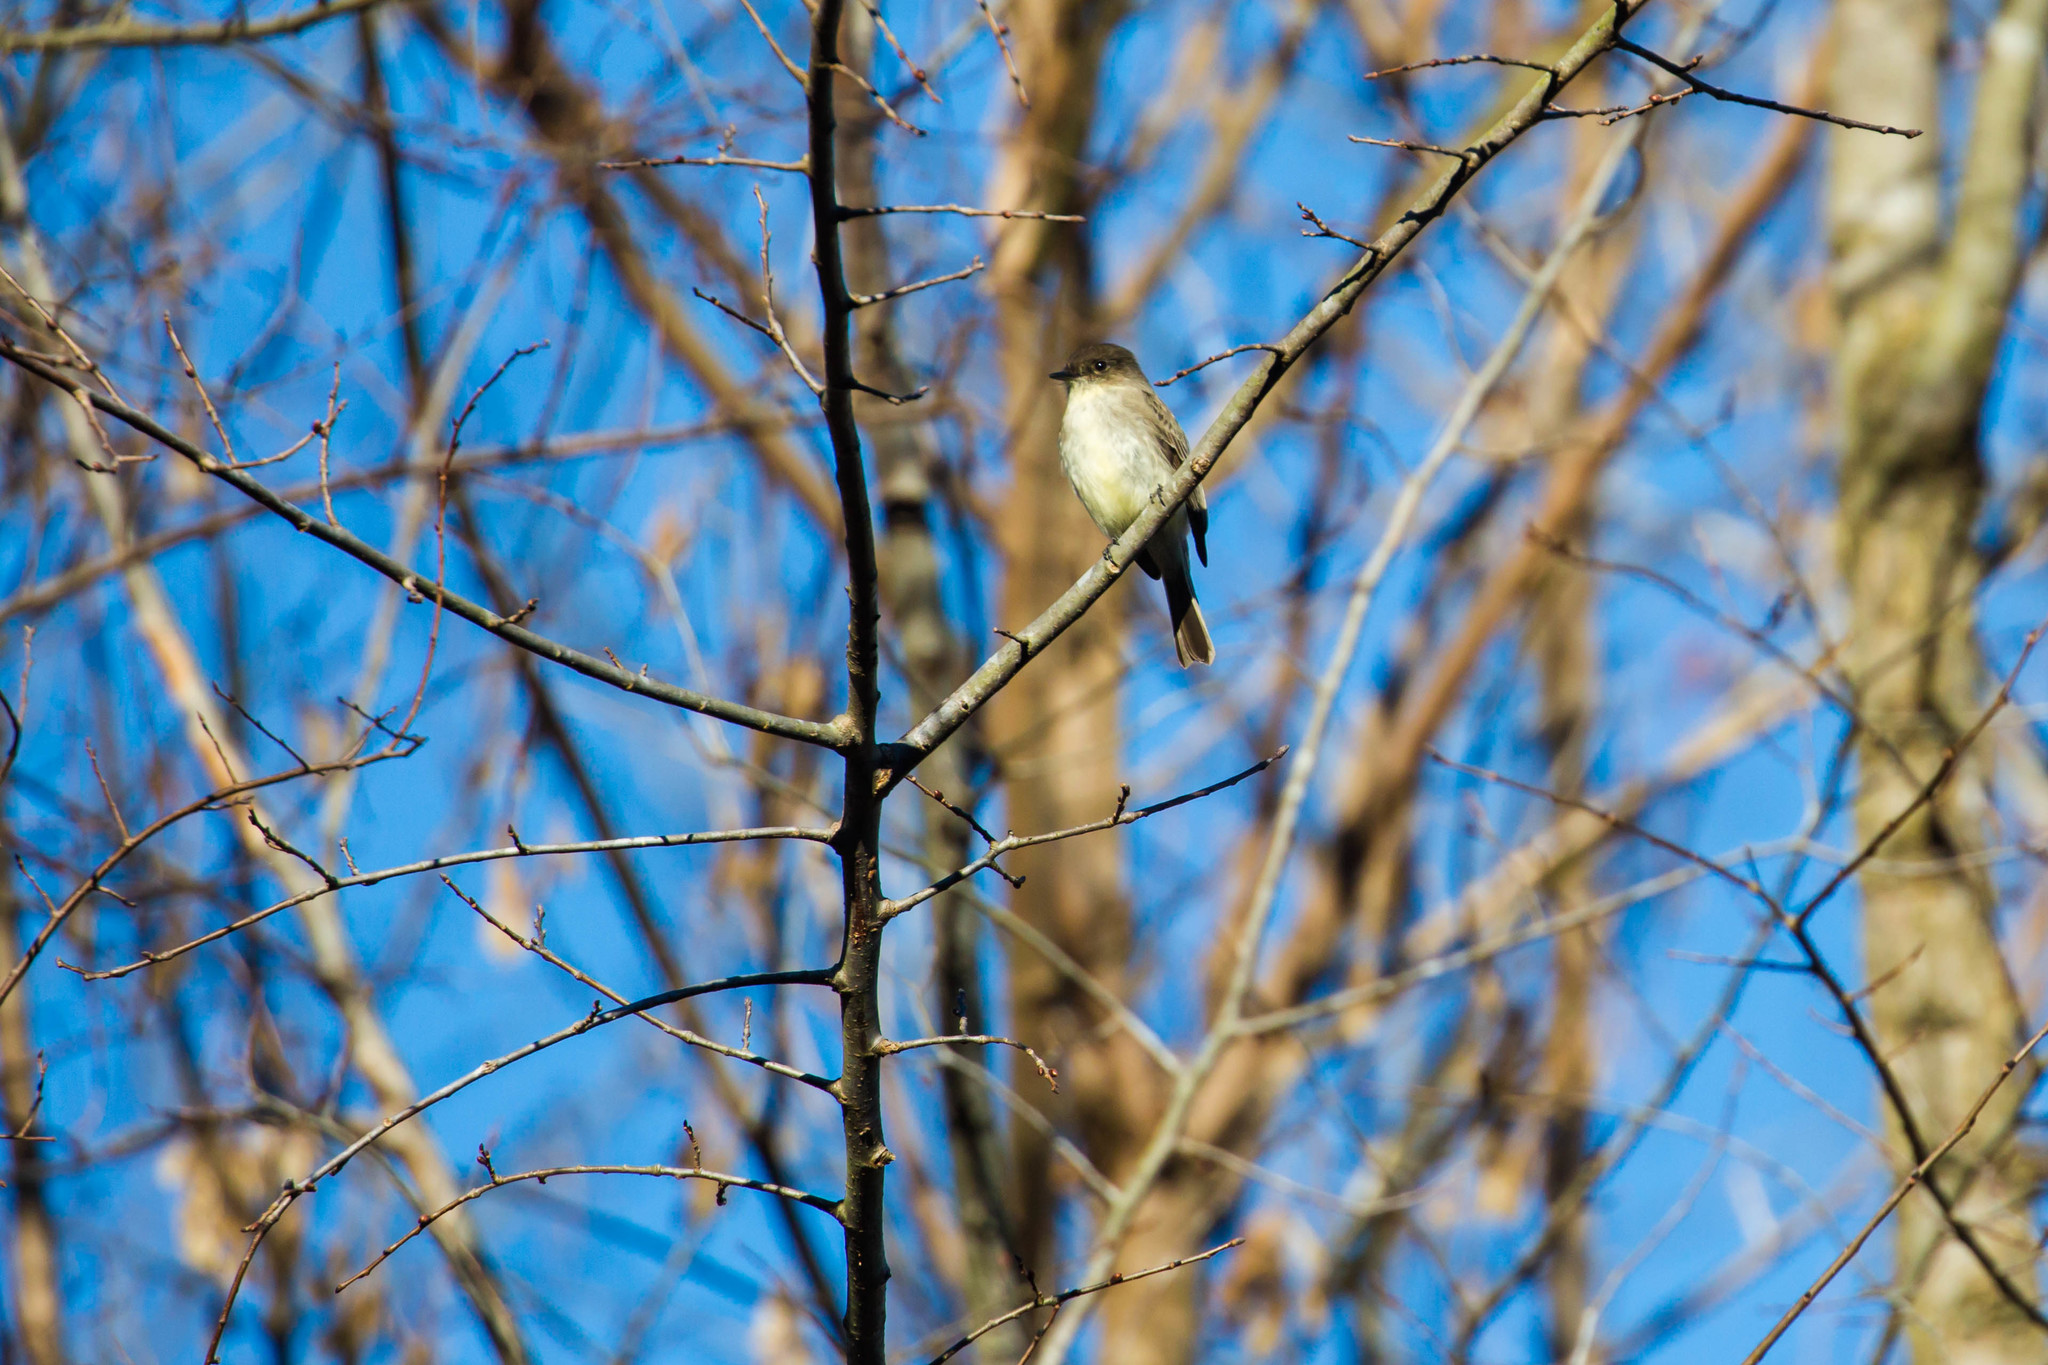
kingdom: Animalia
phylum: Chordata
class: Aves
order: Passeriformes
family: Tyrannidae
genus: Sayornis
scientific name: Sayornis phoebe
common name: Eastern phoebe
